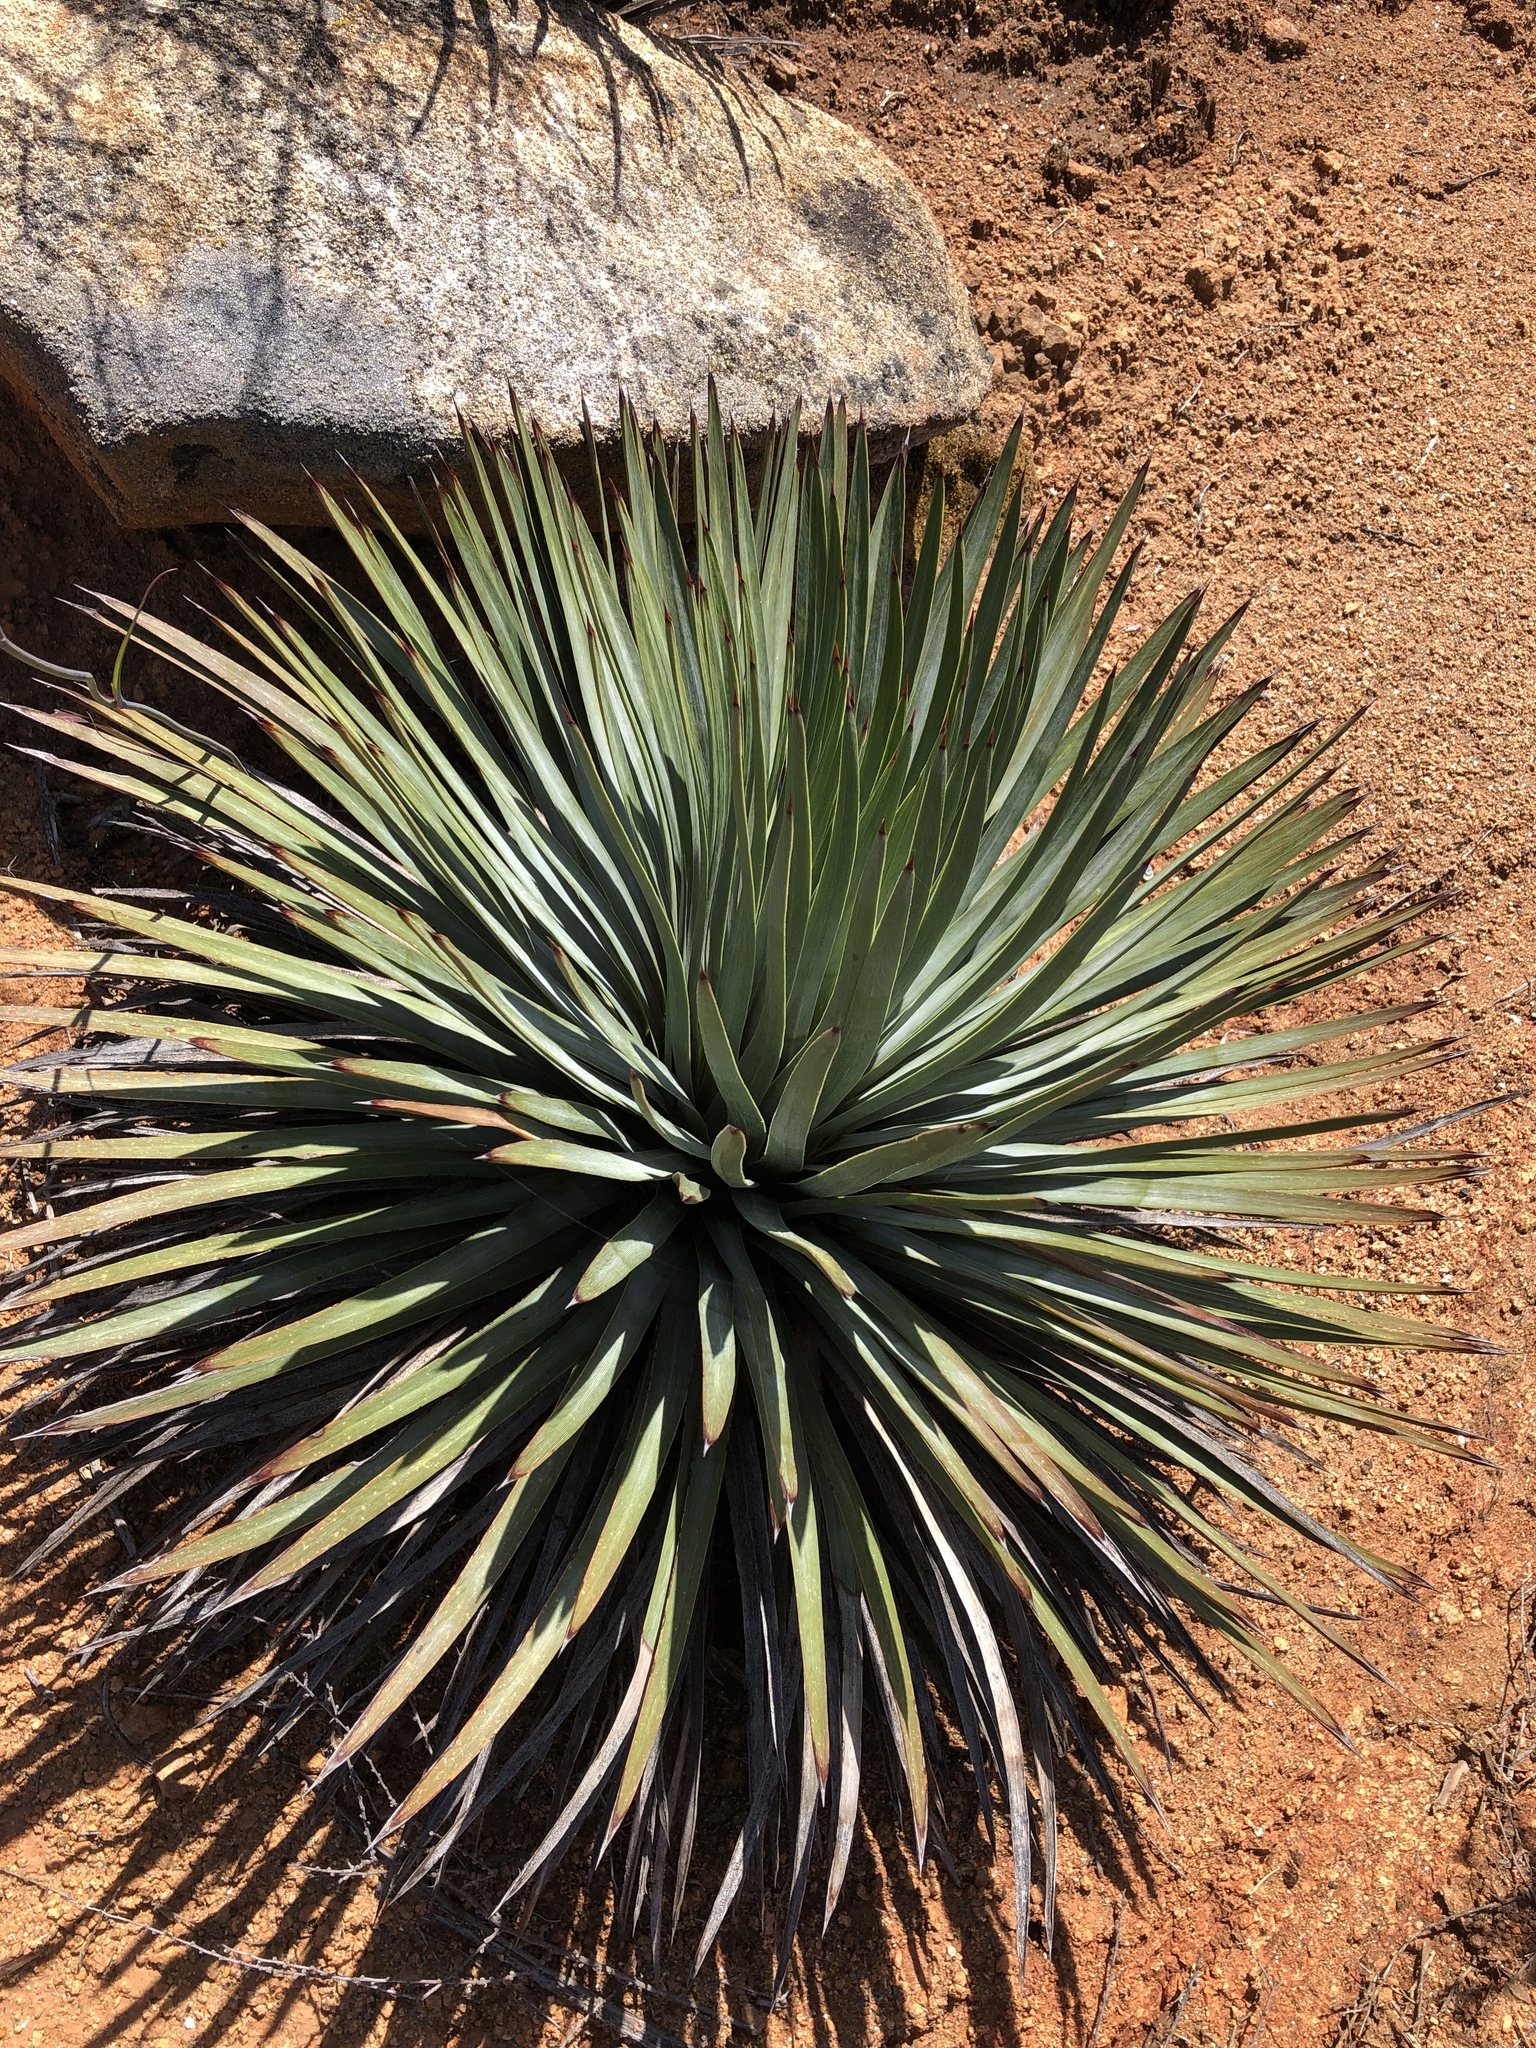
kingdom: Plantae
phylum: Tracheophyta
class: Liliopsida
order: Asparagales
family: Asparagaceae
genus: Hesperoyucca
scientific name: Hesperoyucca whipplei
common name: Our lord's-candle
